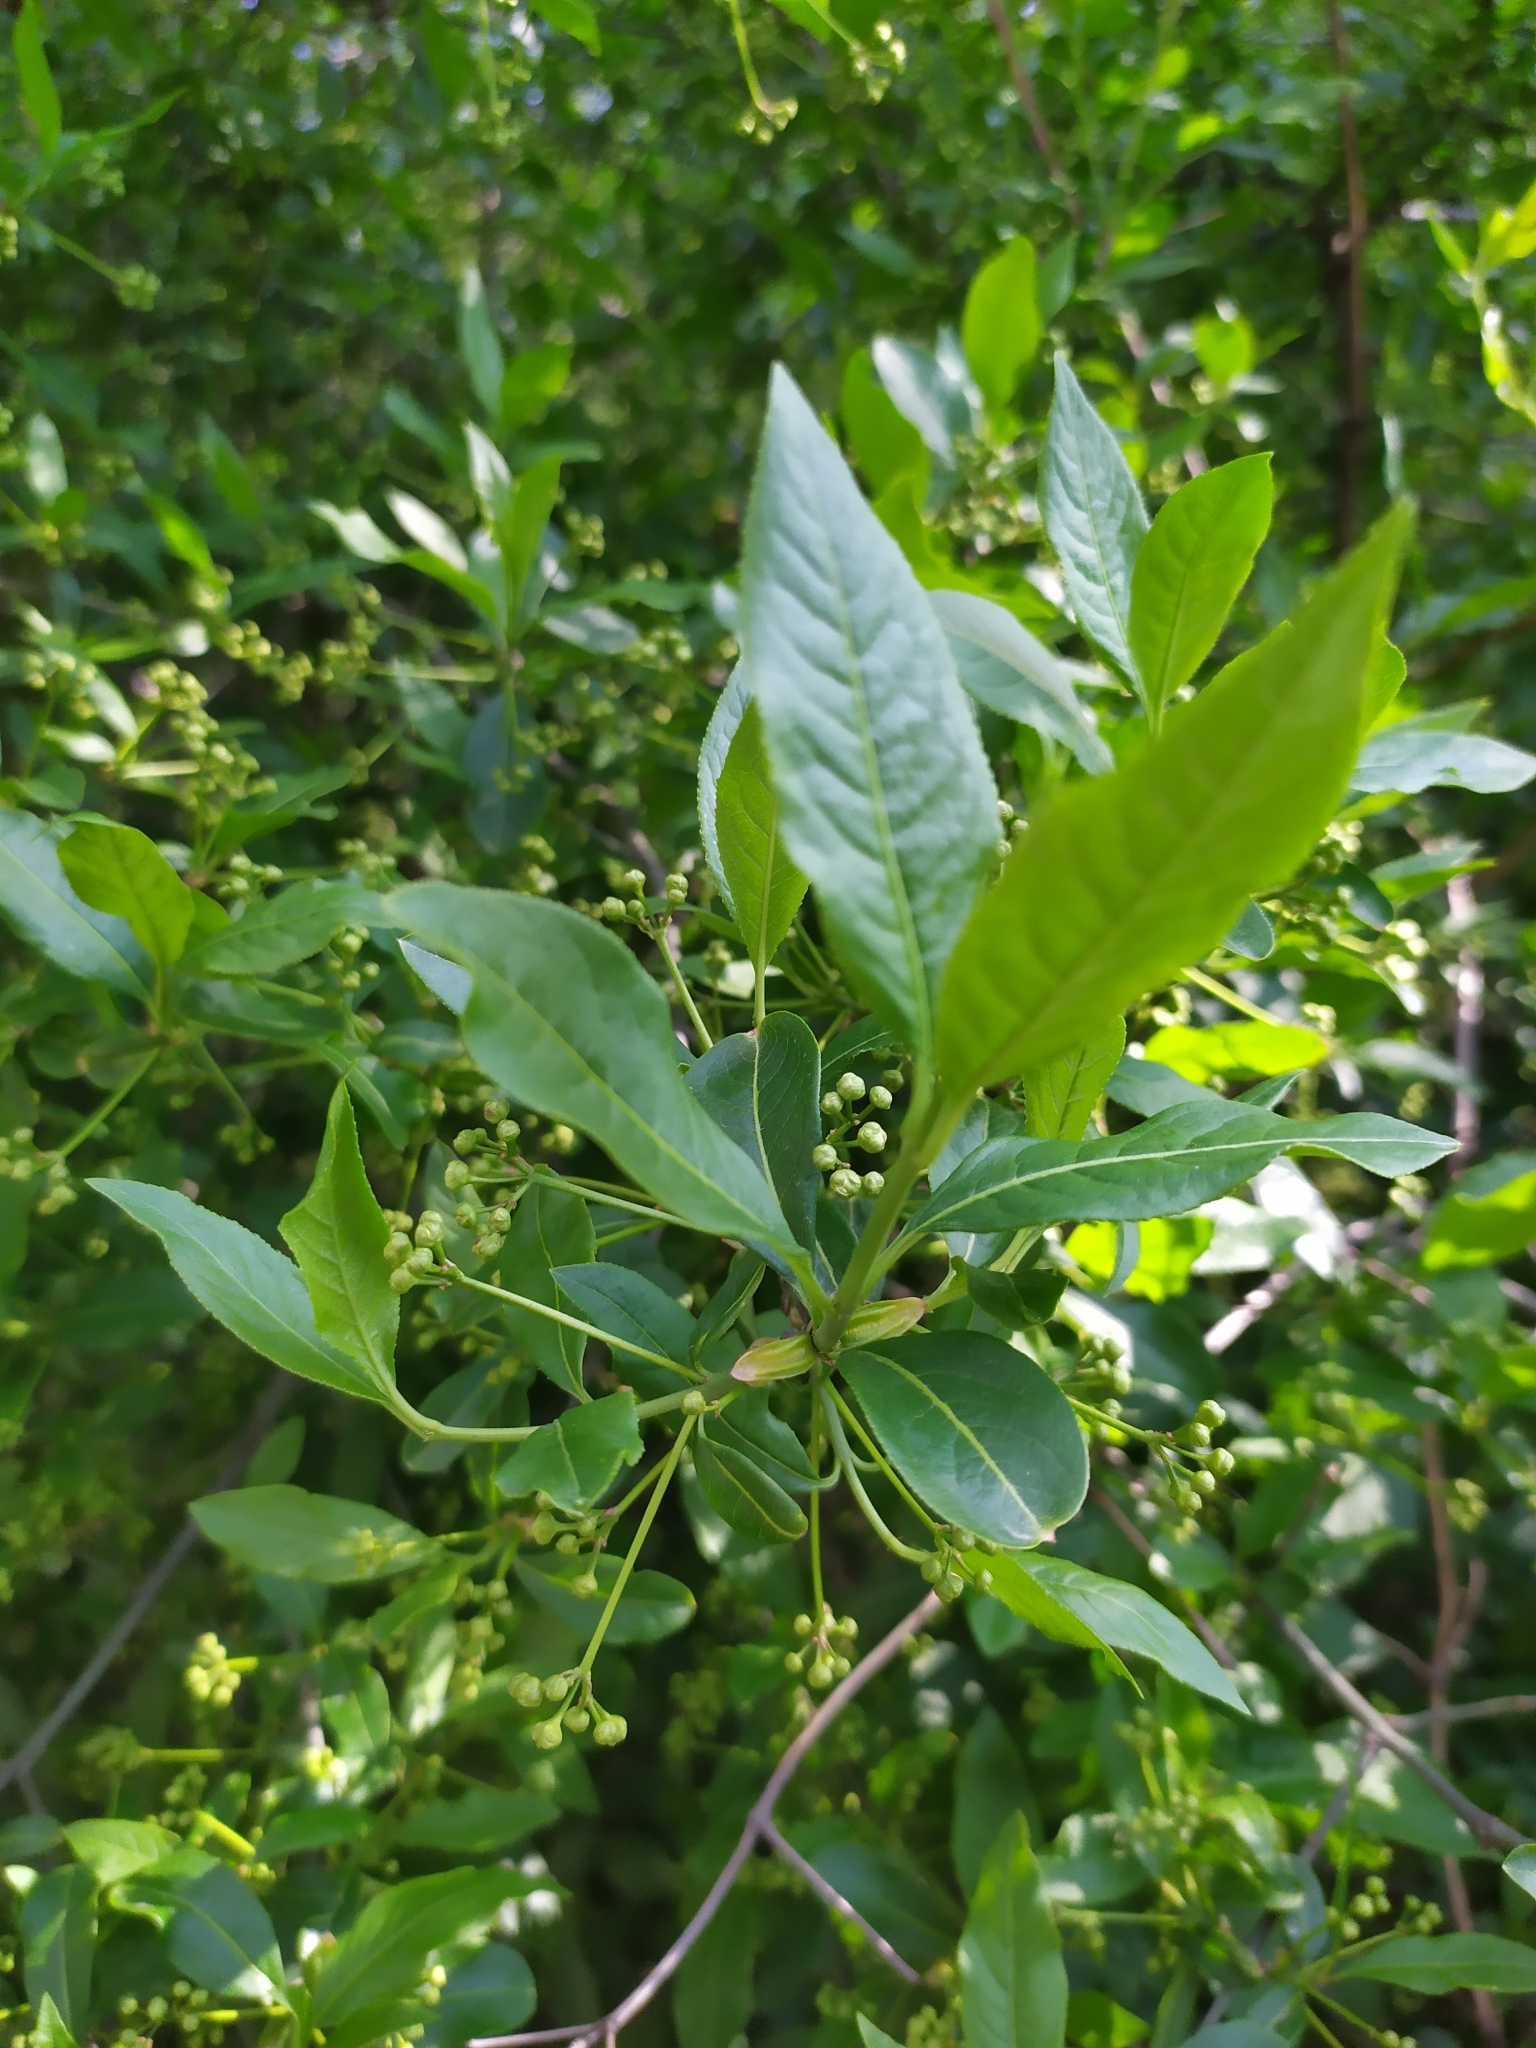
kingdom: Plantae
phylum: Tracheophyta
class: Magnoliopsida
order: Celastrales
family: Celastraceae
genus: Euonymus
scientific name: Euonymus europaeus
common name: Spindle
